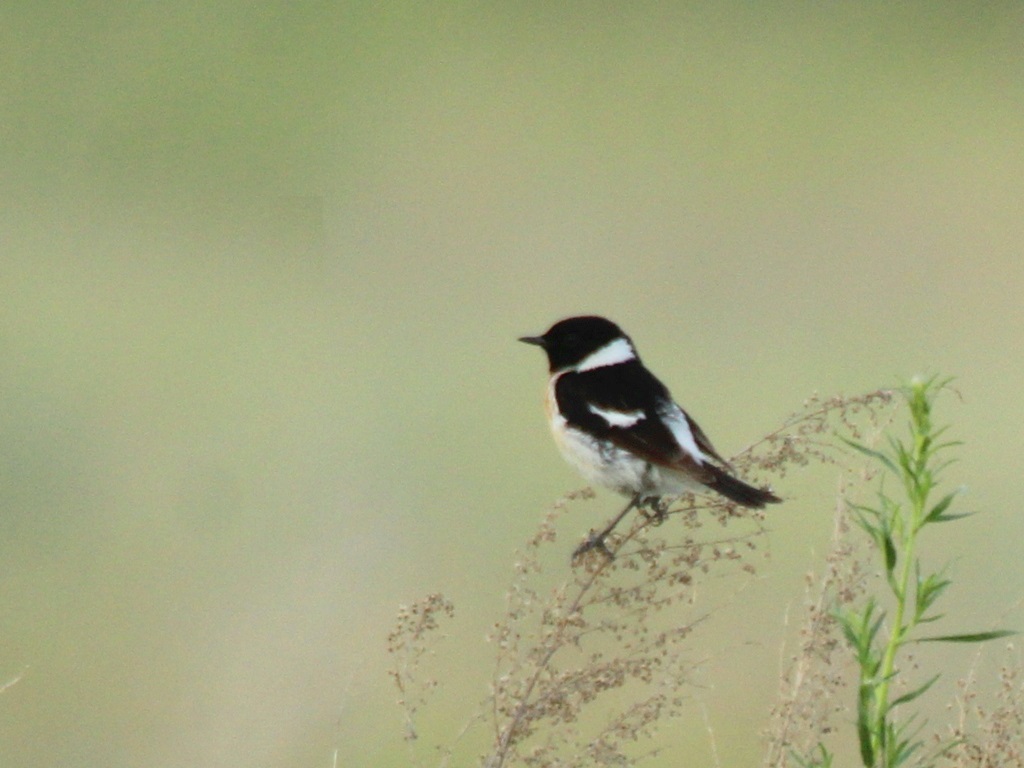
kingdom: Animalia
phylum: Chordata
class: Aves
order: Passeriformes
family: Muscicapidae
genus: Saxicola
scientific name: Saxicola maurus
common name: Siberian stonechat
